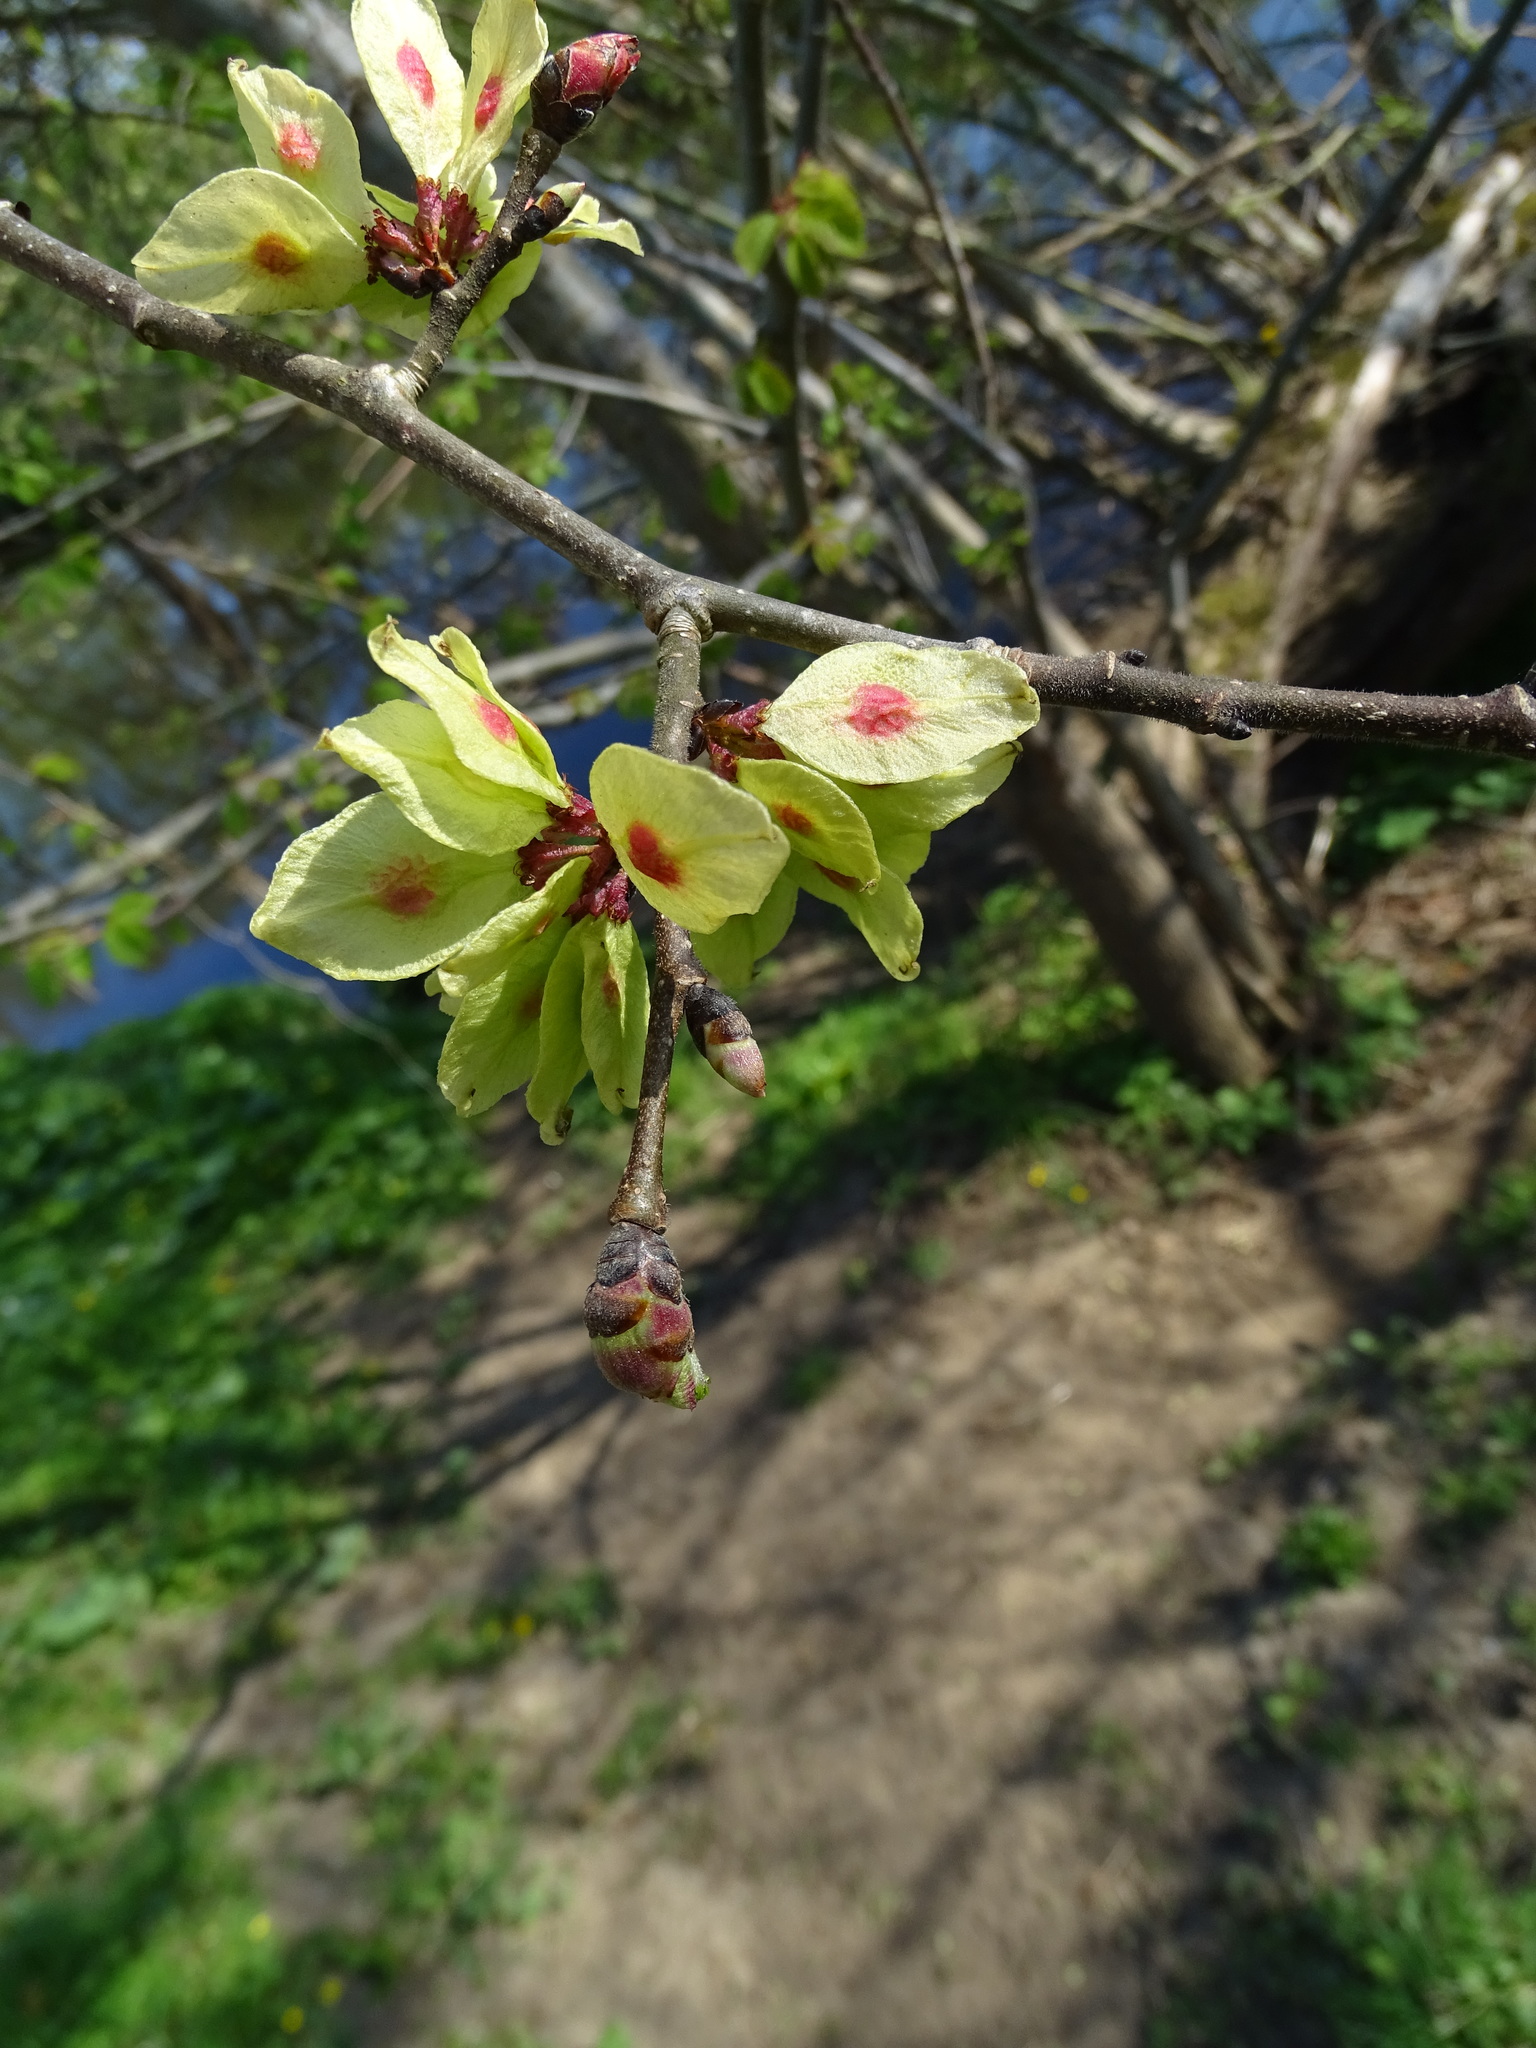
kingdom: Plantae
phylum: Tracheophyta
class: Magnoliopsida
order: Rosales
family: Ulmaceae
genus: Ulmus
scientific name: Ulmus glabra
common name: Wych elm
